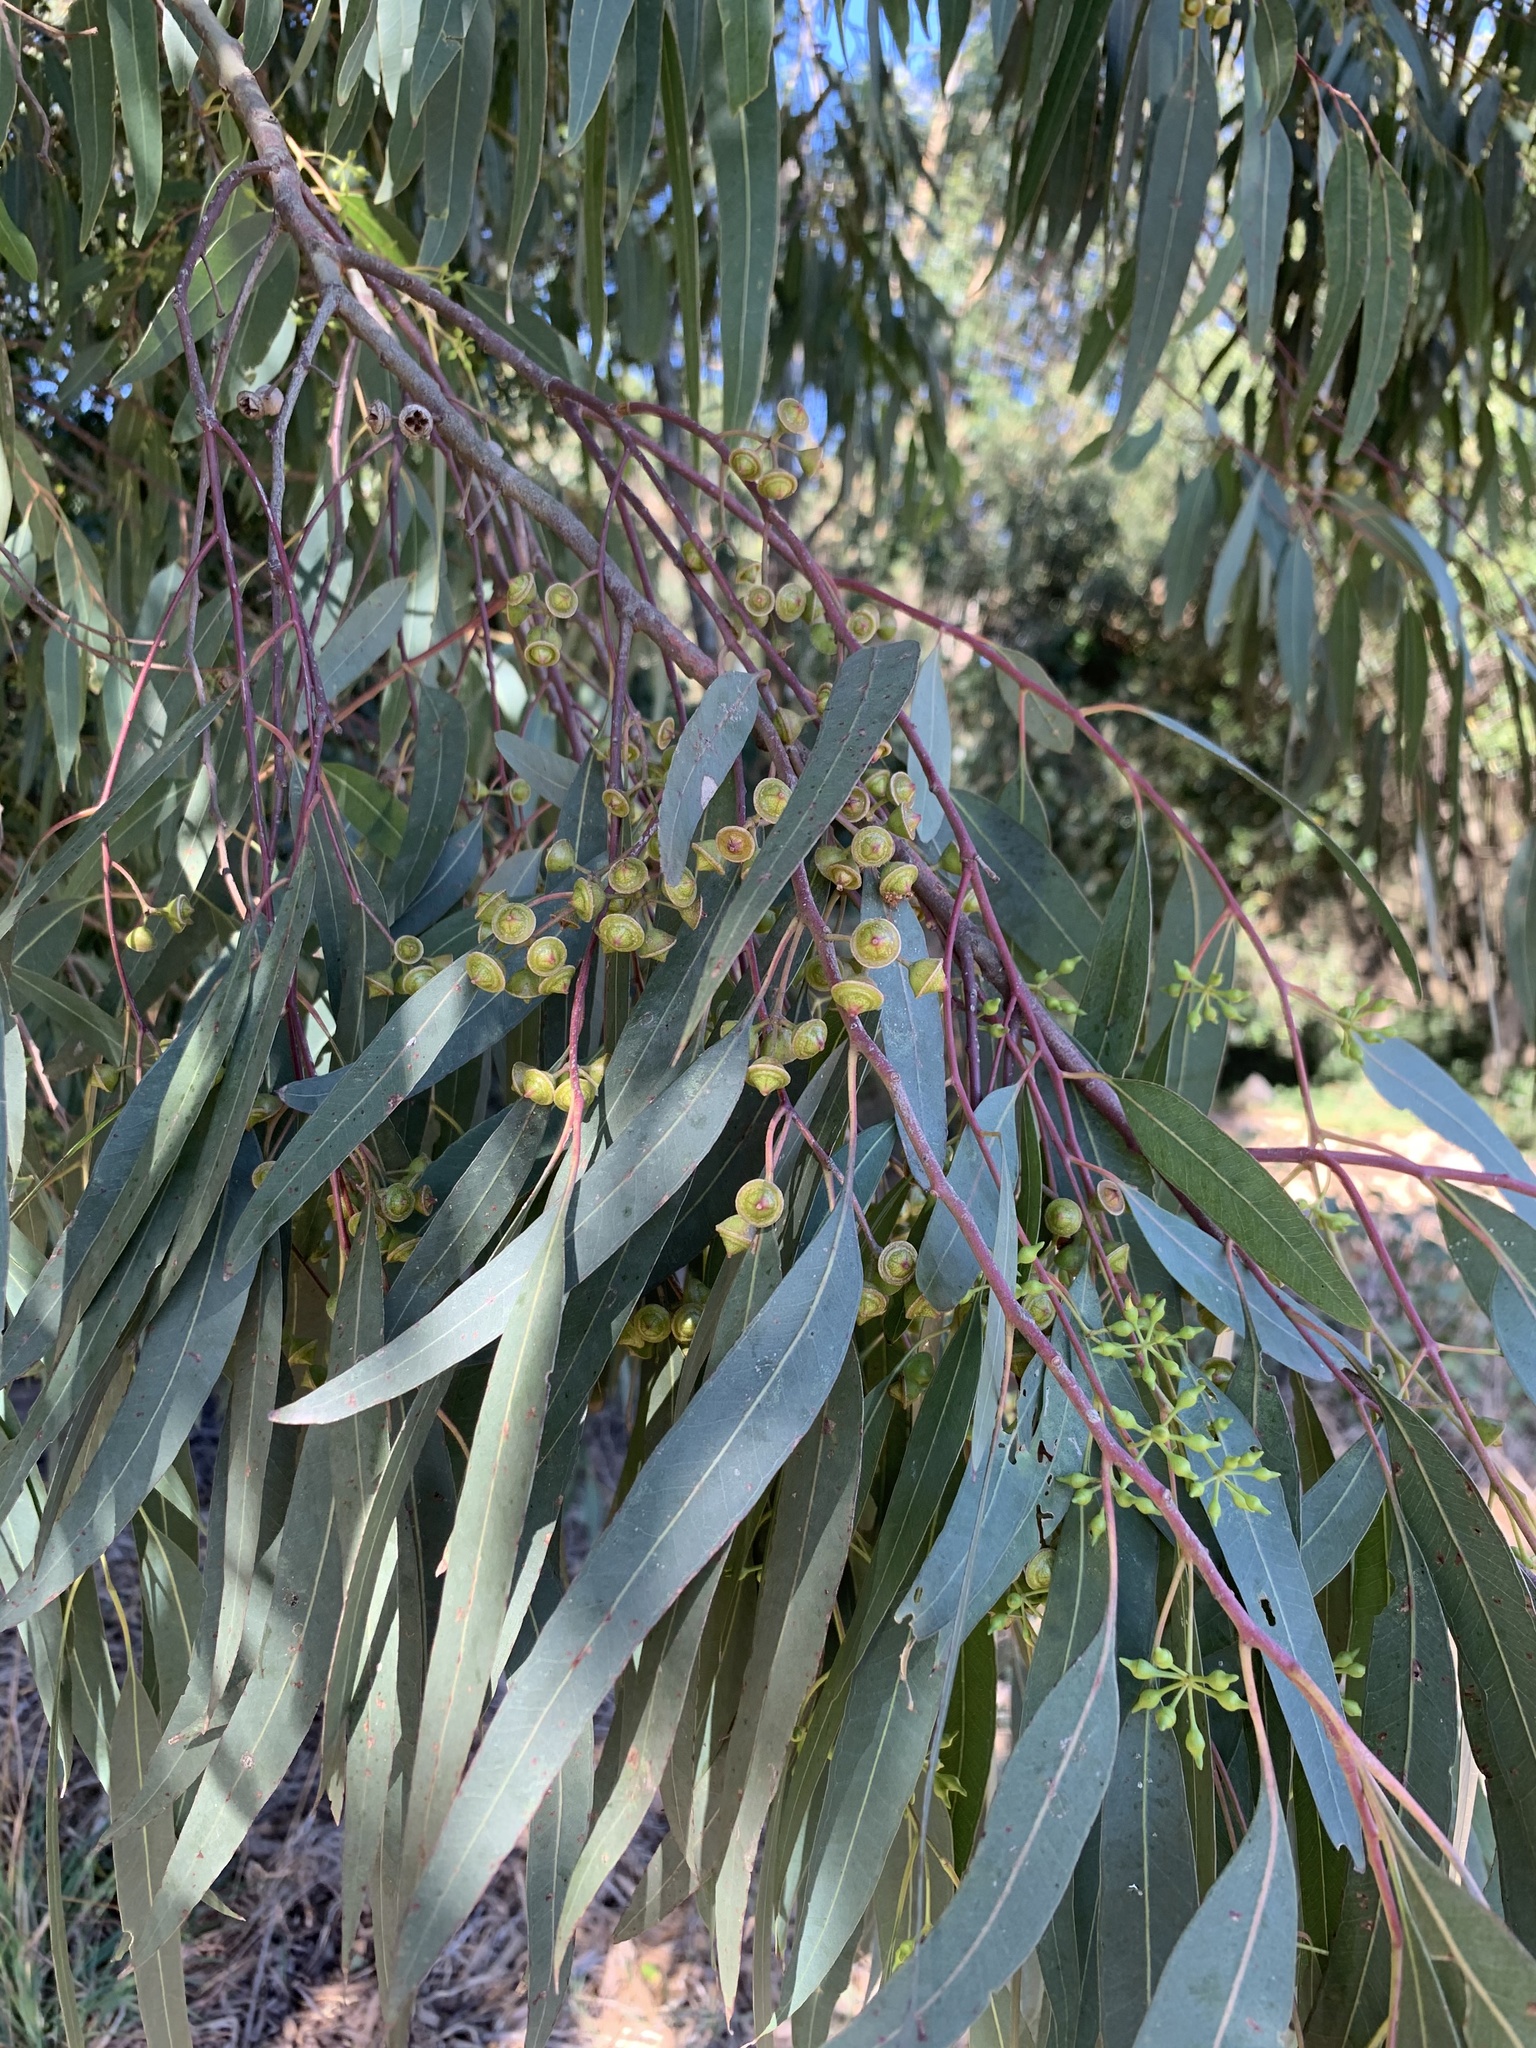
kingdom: Plantae
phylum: Tracheophyta
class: Magnoliopsida
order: Myrtales
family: Myrtaceae
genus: Eucalyptus
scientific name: Eucalyptus camaldulensis
